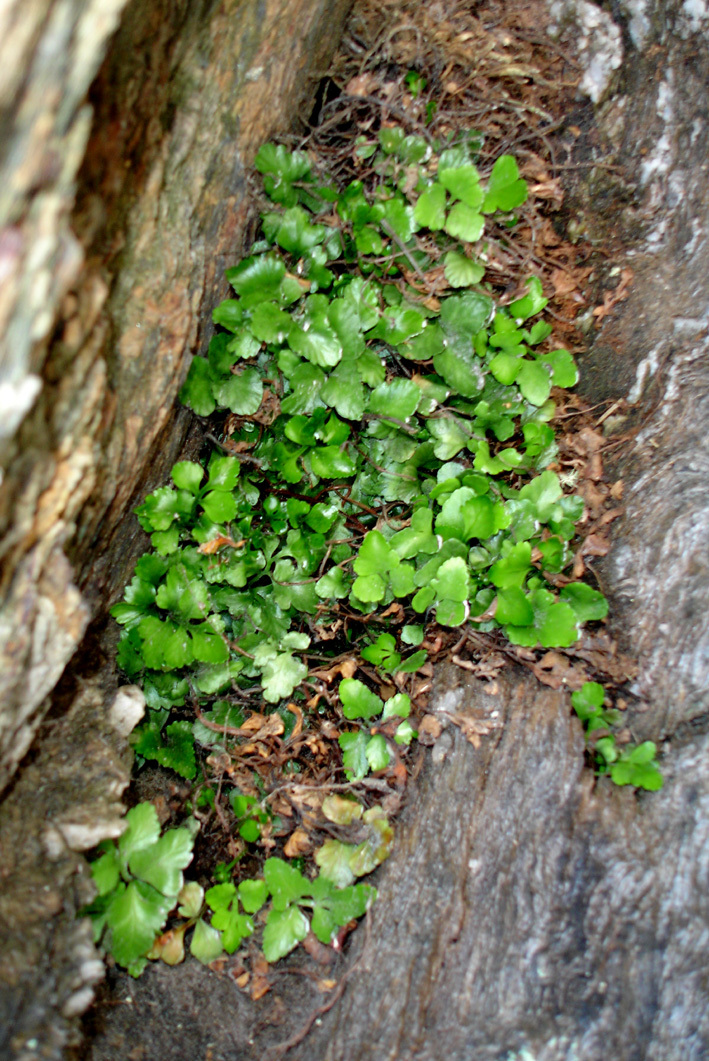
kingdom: Plantae
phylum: Tracheophyta
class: Polypodiopsida
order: Polypodiales
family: Aspleniaceae
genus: Asplenium
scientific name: Asplenium pauperequitum
